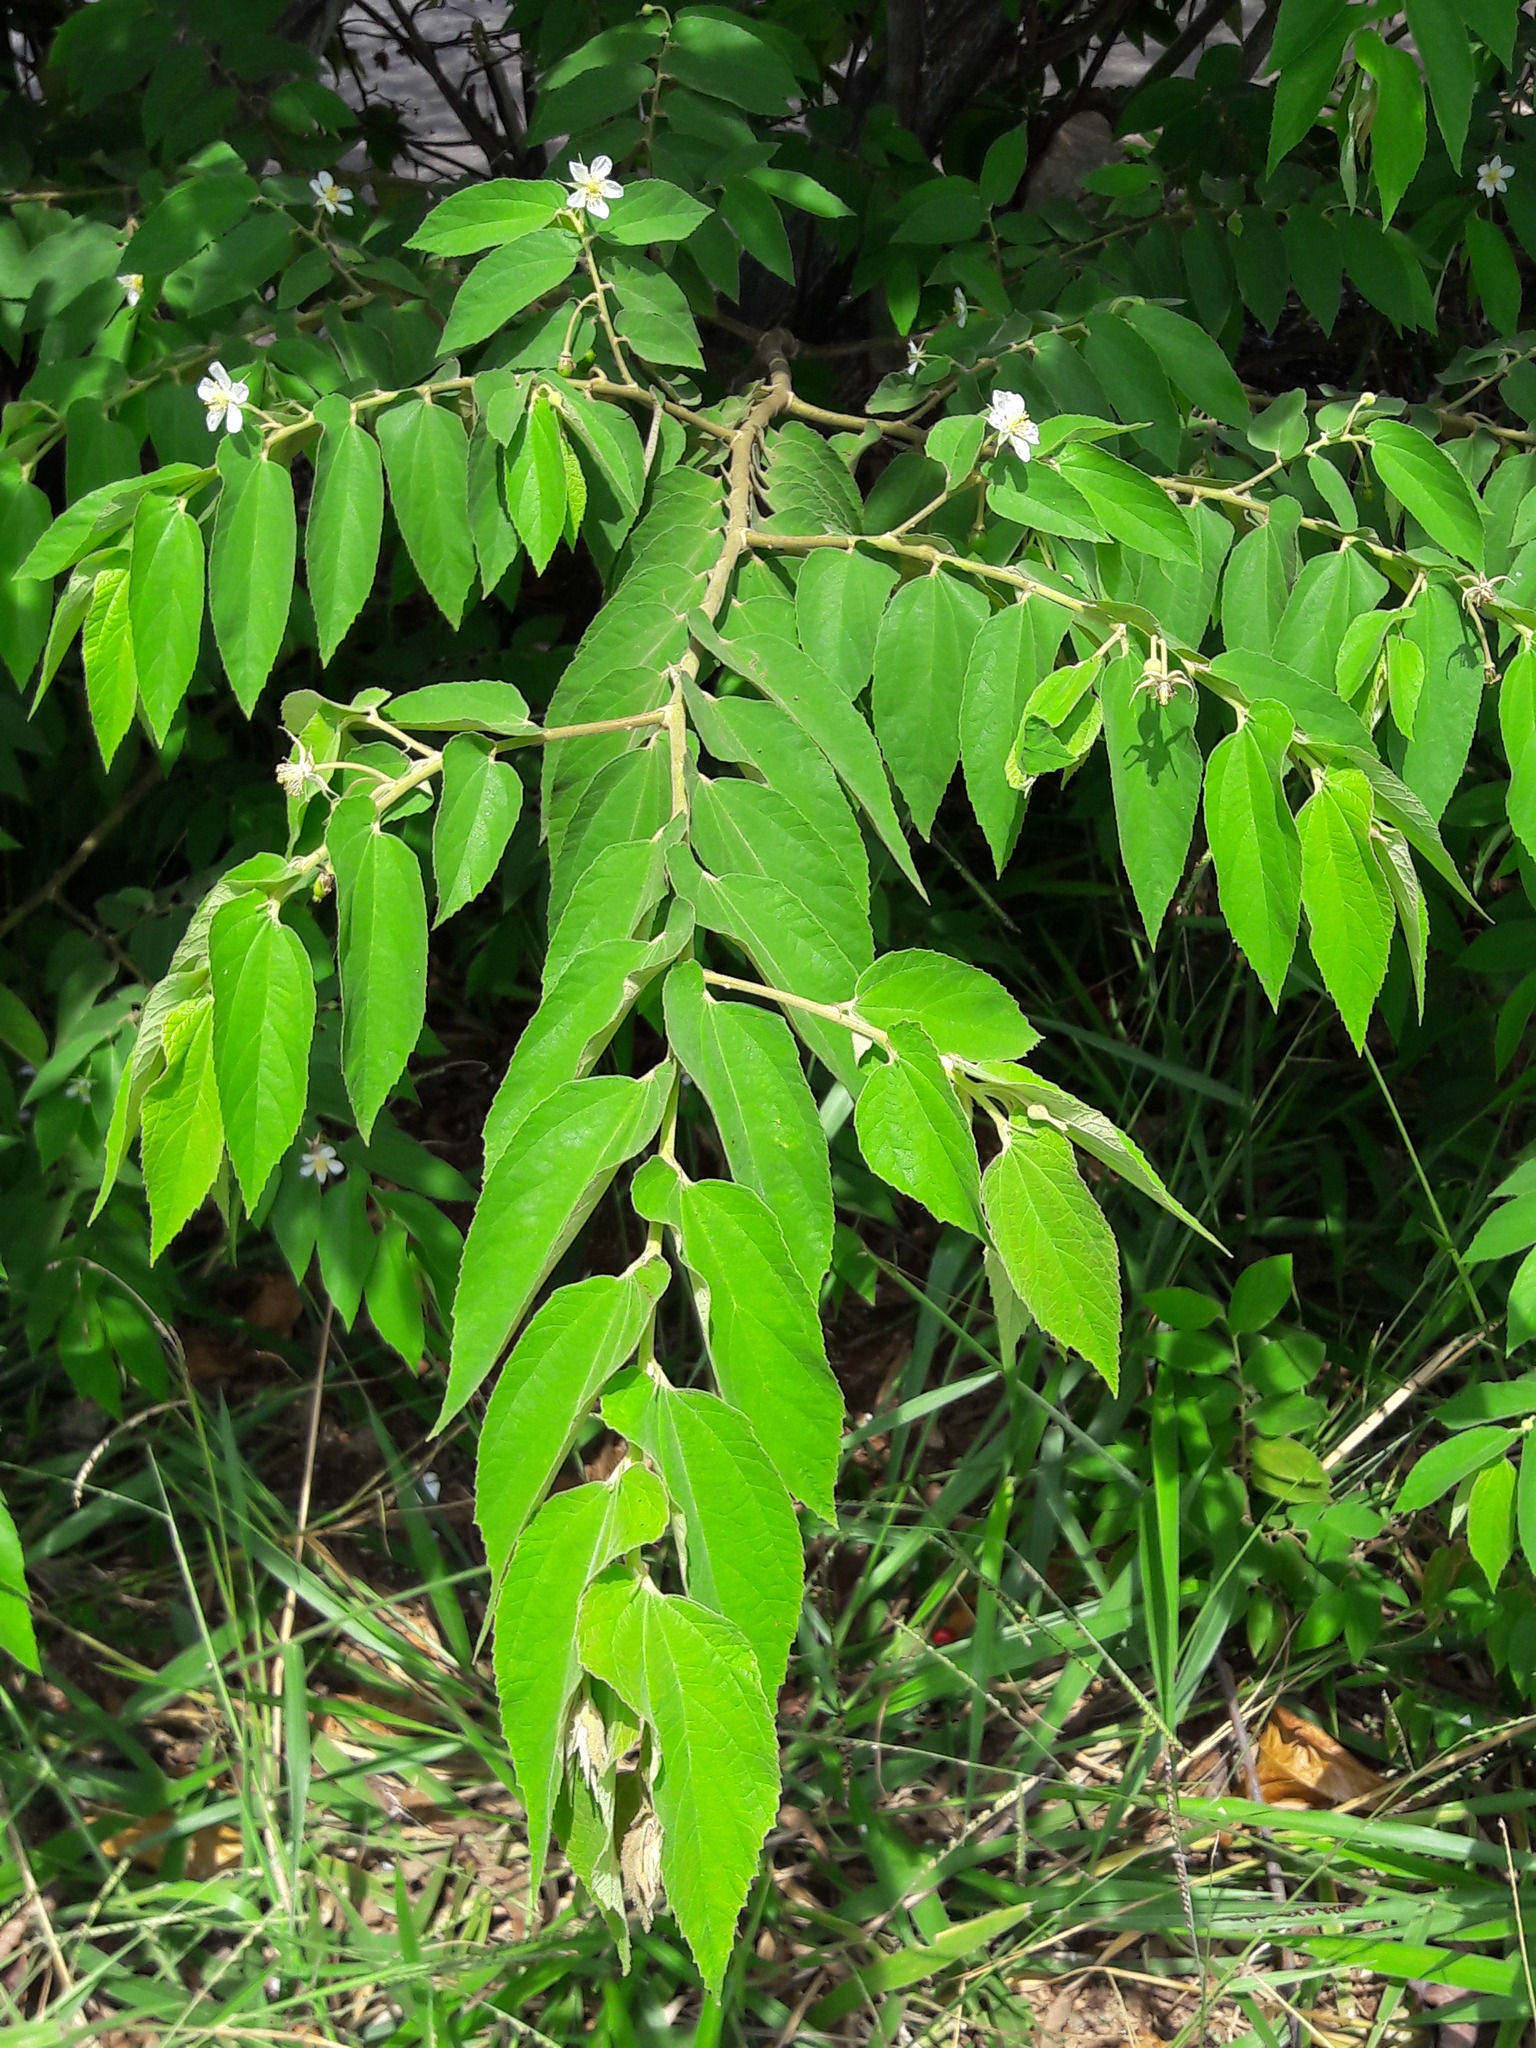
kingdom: Plantae
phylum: Tracheophyta
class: Magnoliopsida
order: Malvales
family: Muntingiaceae
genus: Muntingia
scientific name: Muntingia calabura
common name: Strawberrytree
